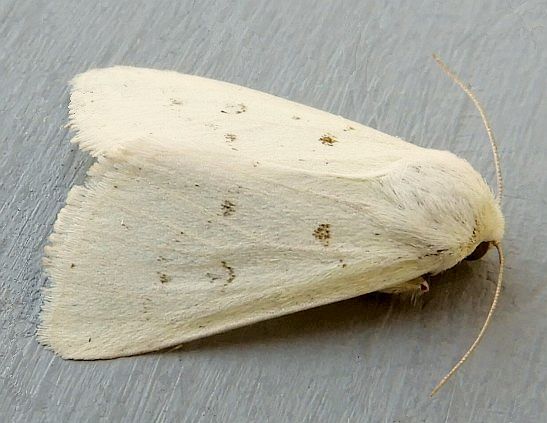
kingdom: Animalia
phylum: Arthropoda
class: Insecta
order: Lepidoptera
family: Noctuidae
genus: Schinia
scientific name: Schinia luxa
